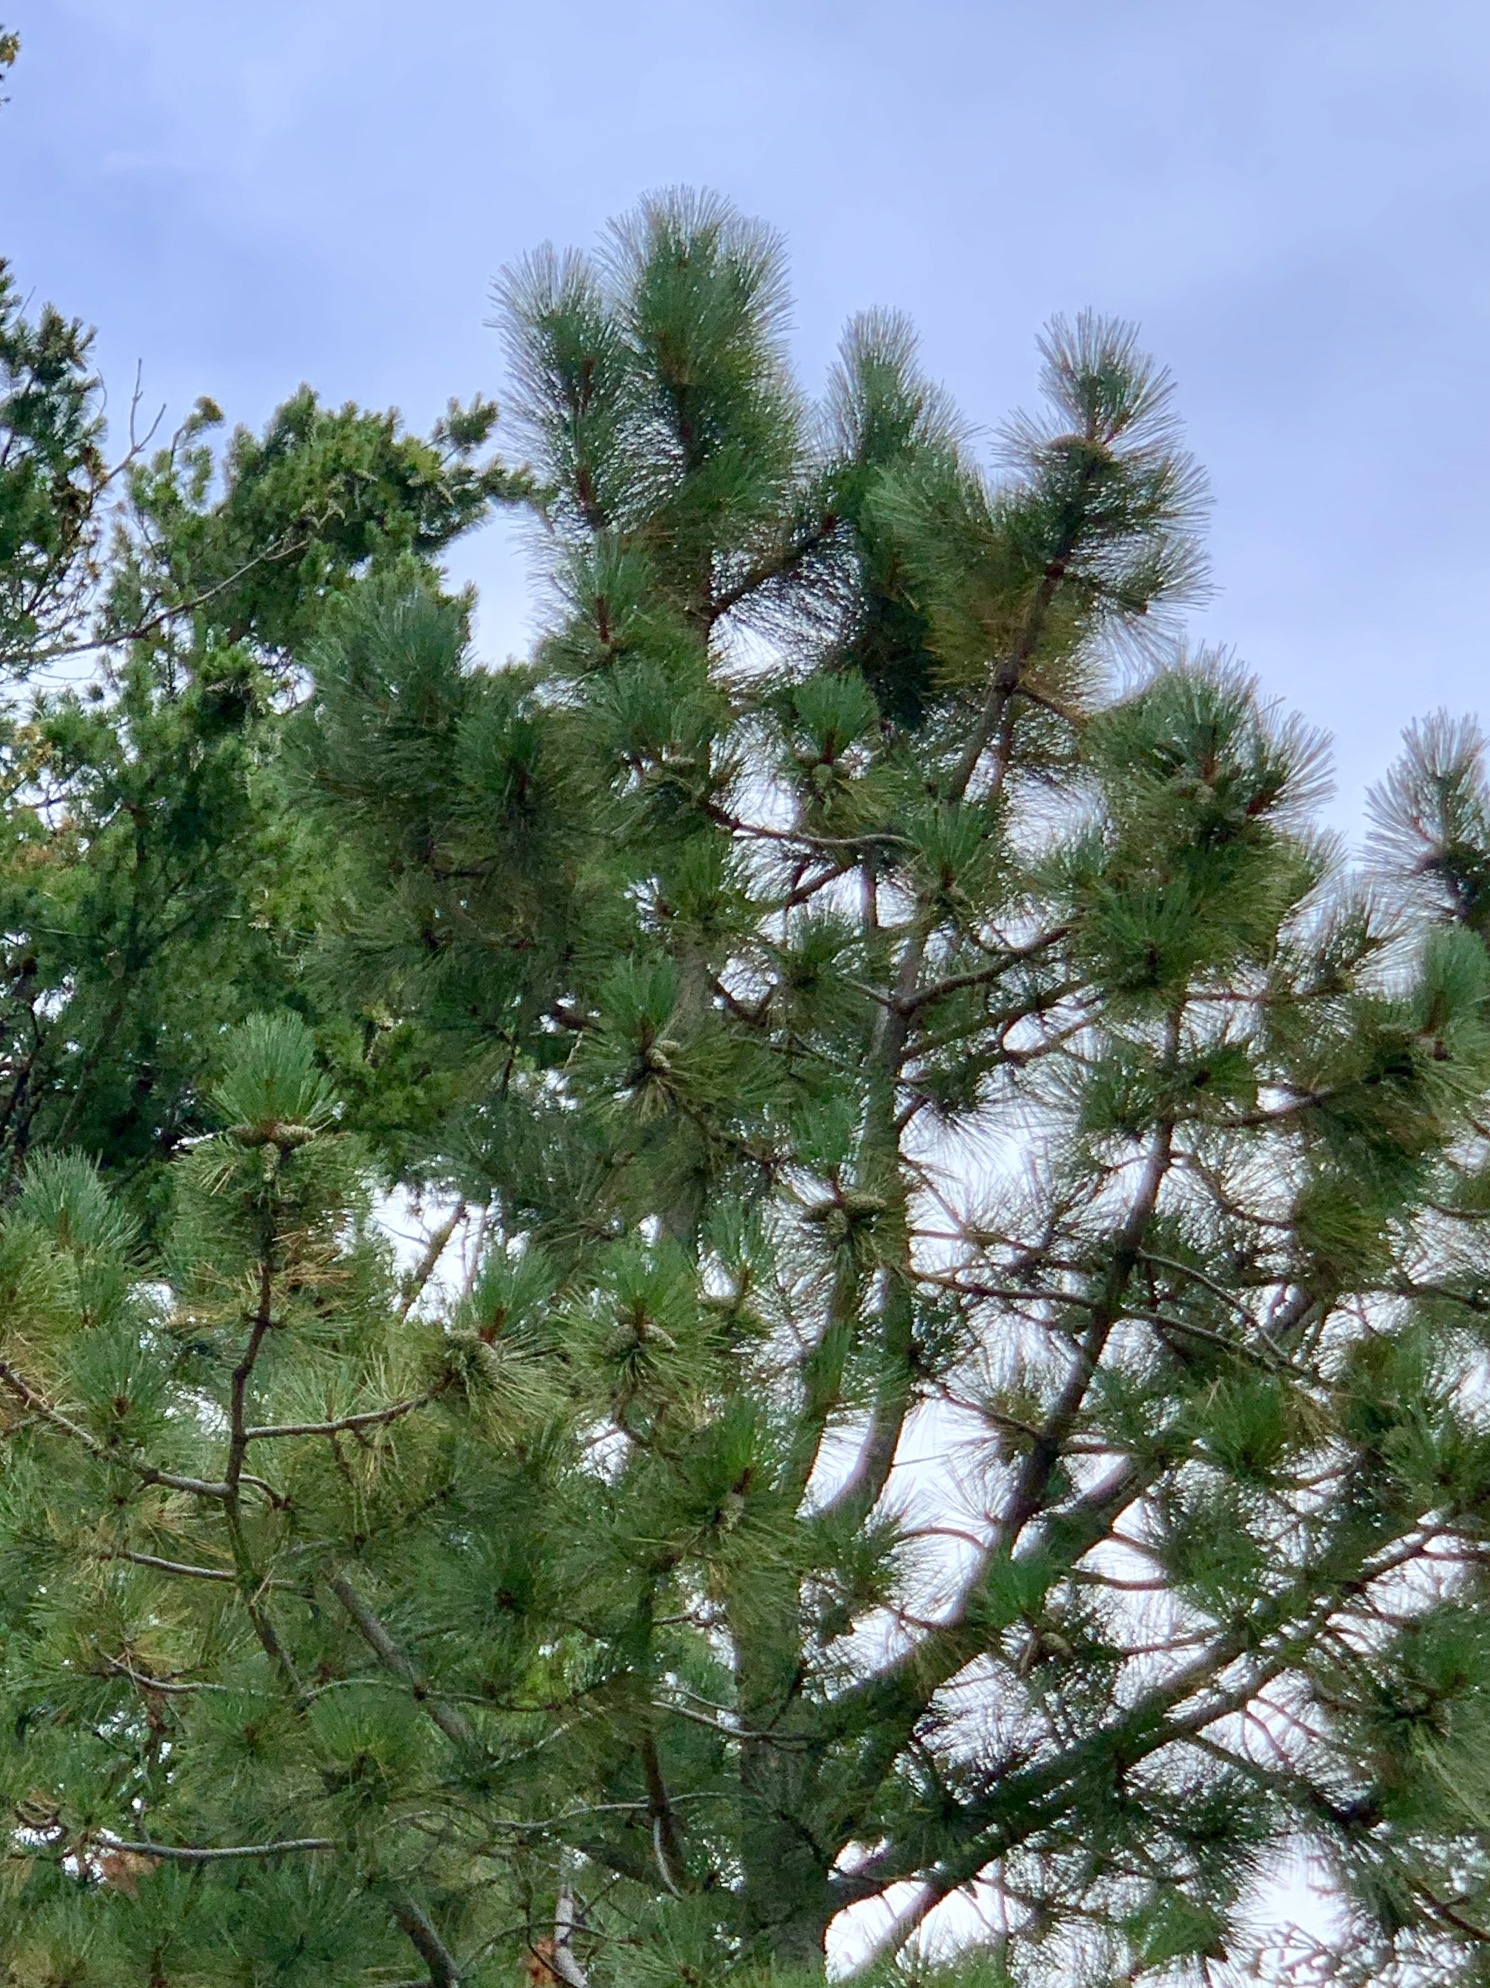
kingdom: Plantae
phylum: Tracheophyta
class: Pinopsida
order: Pinales
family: Pinaceae
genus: Pinus
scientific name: Pinus ponderosa
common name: Western yellow-pine
